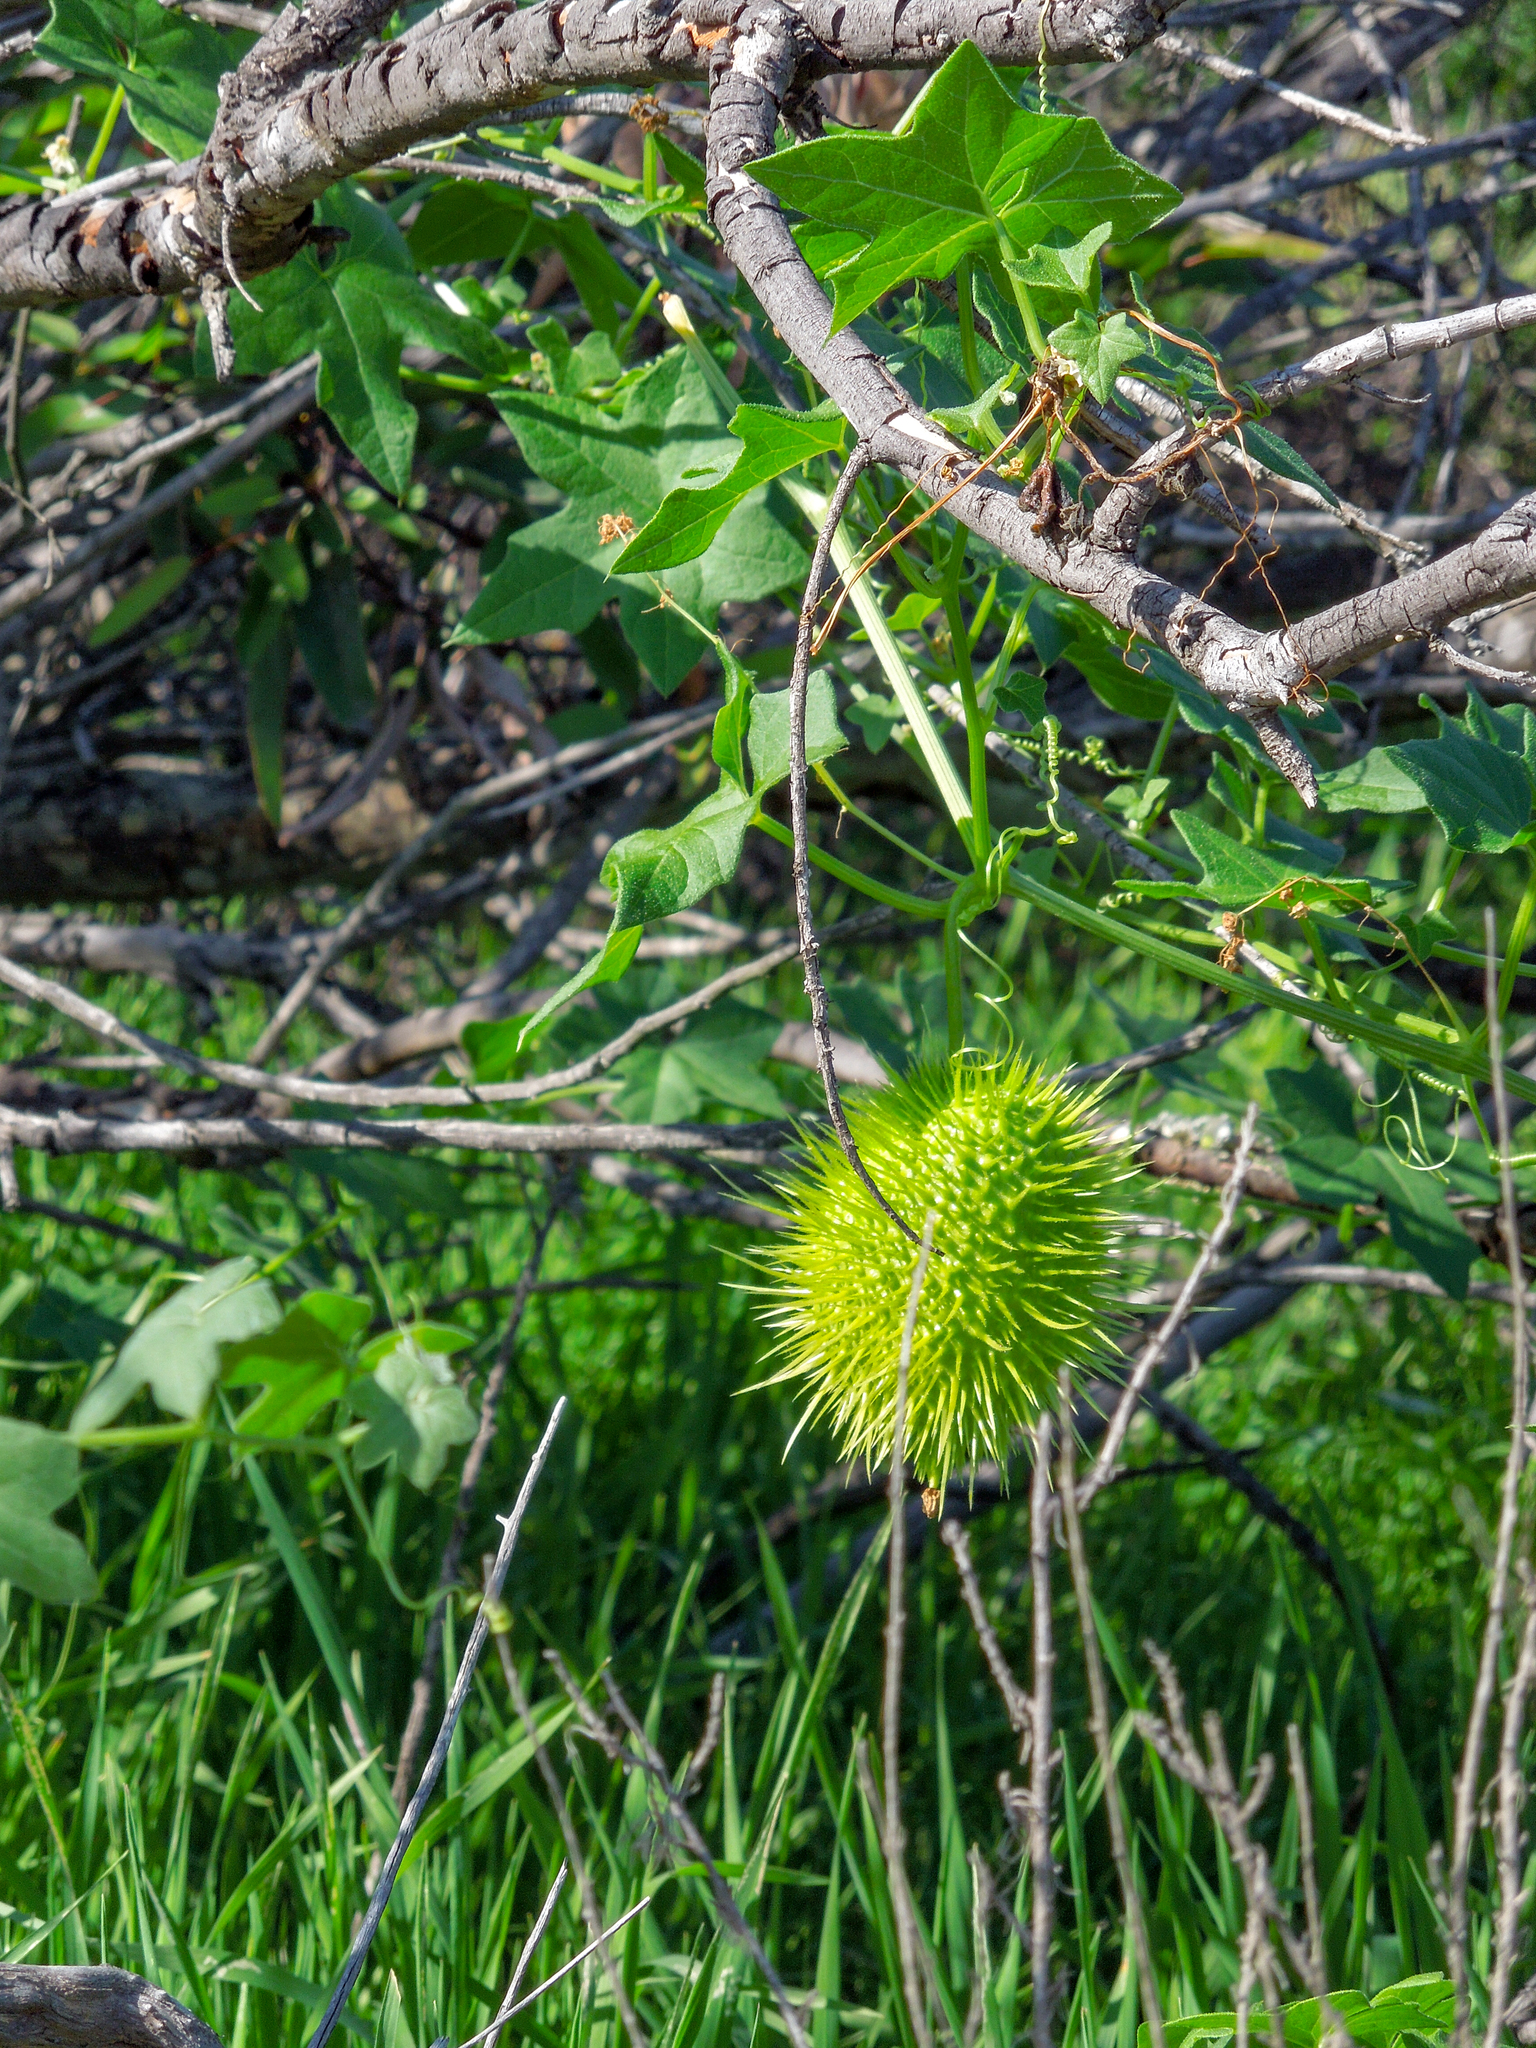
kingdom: Plantae
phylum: Tracheophyta
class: Magnoliopsida
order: Cucurbitales
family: Cucurbitaceae
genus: Marah
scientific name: Marah macrocarpa
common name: Cucamonga manroot
